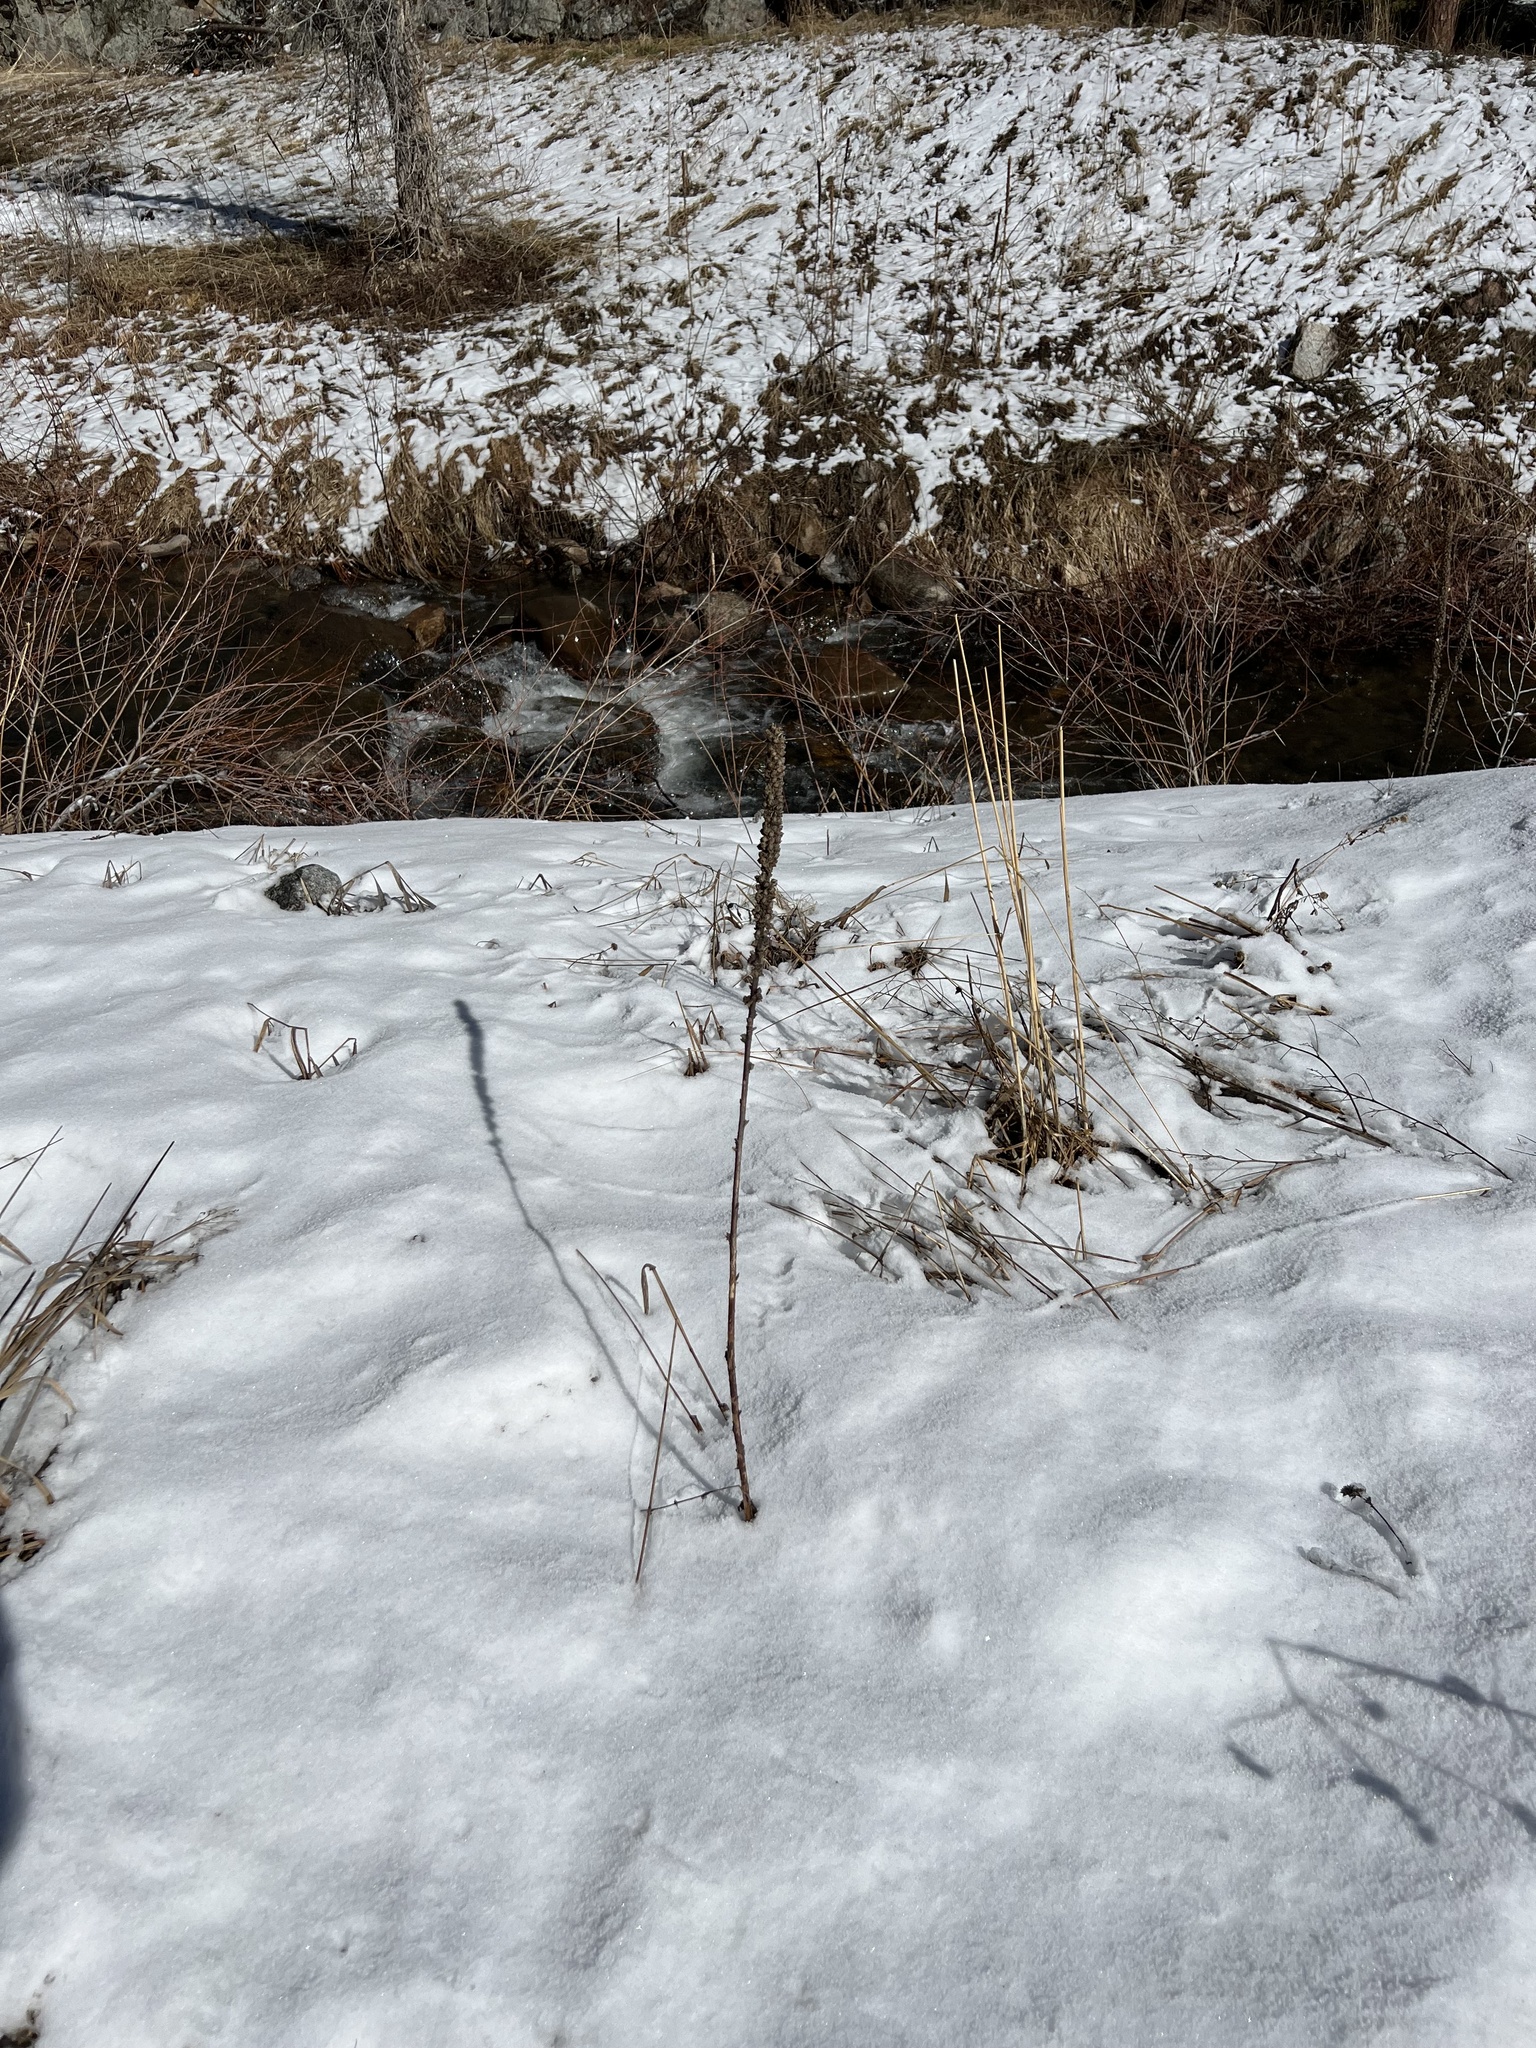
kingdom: Plantae
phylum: Tracheophyta
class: Magnoliopsida
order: Lamiales
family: Scrophulariaceae
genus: Verbascum
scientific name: Verbascum thapsus
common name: Common mullein
